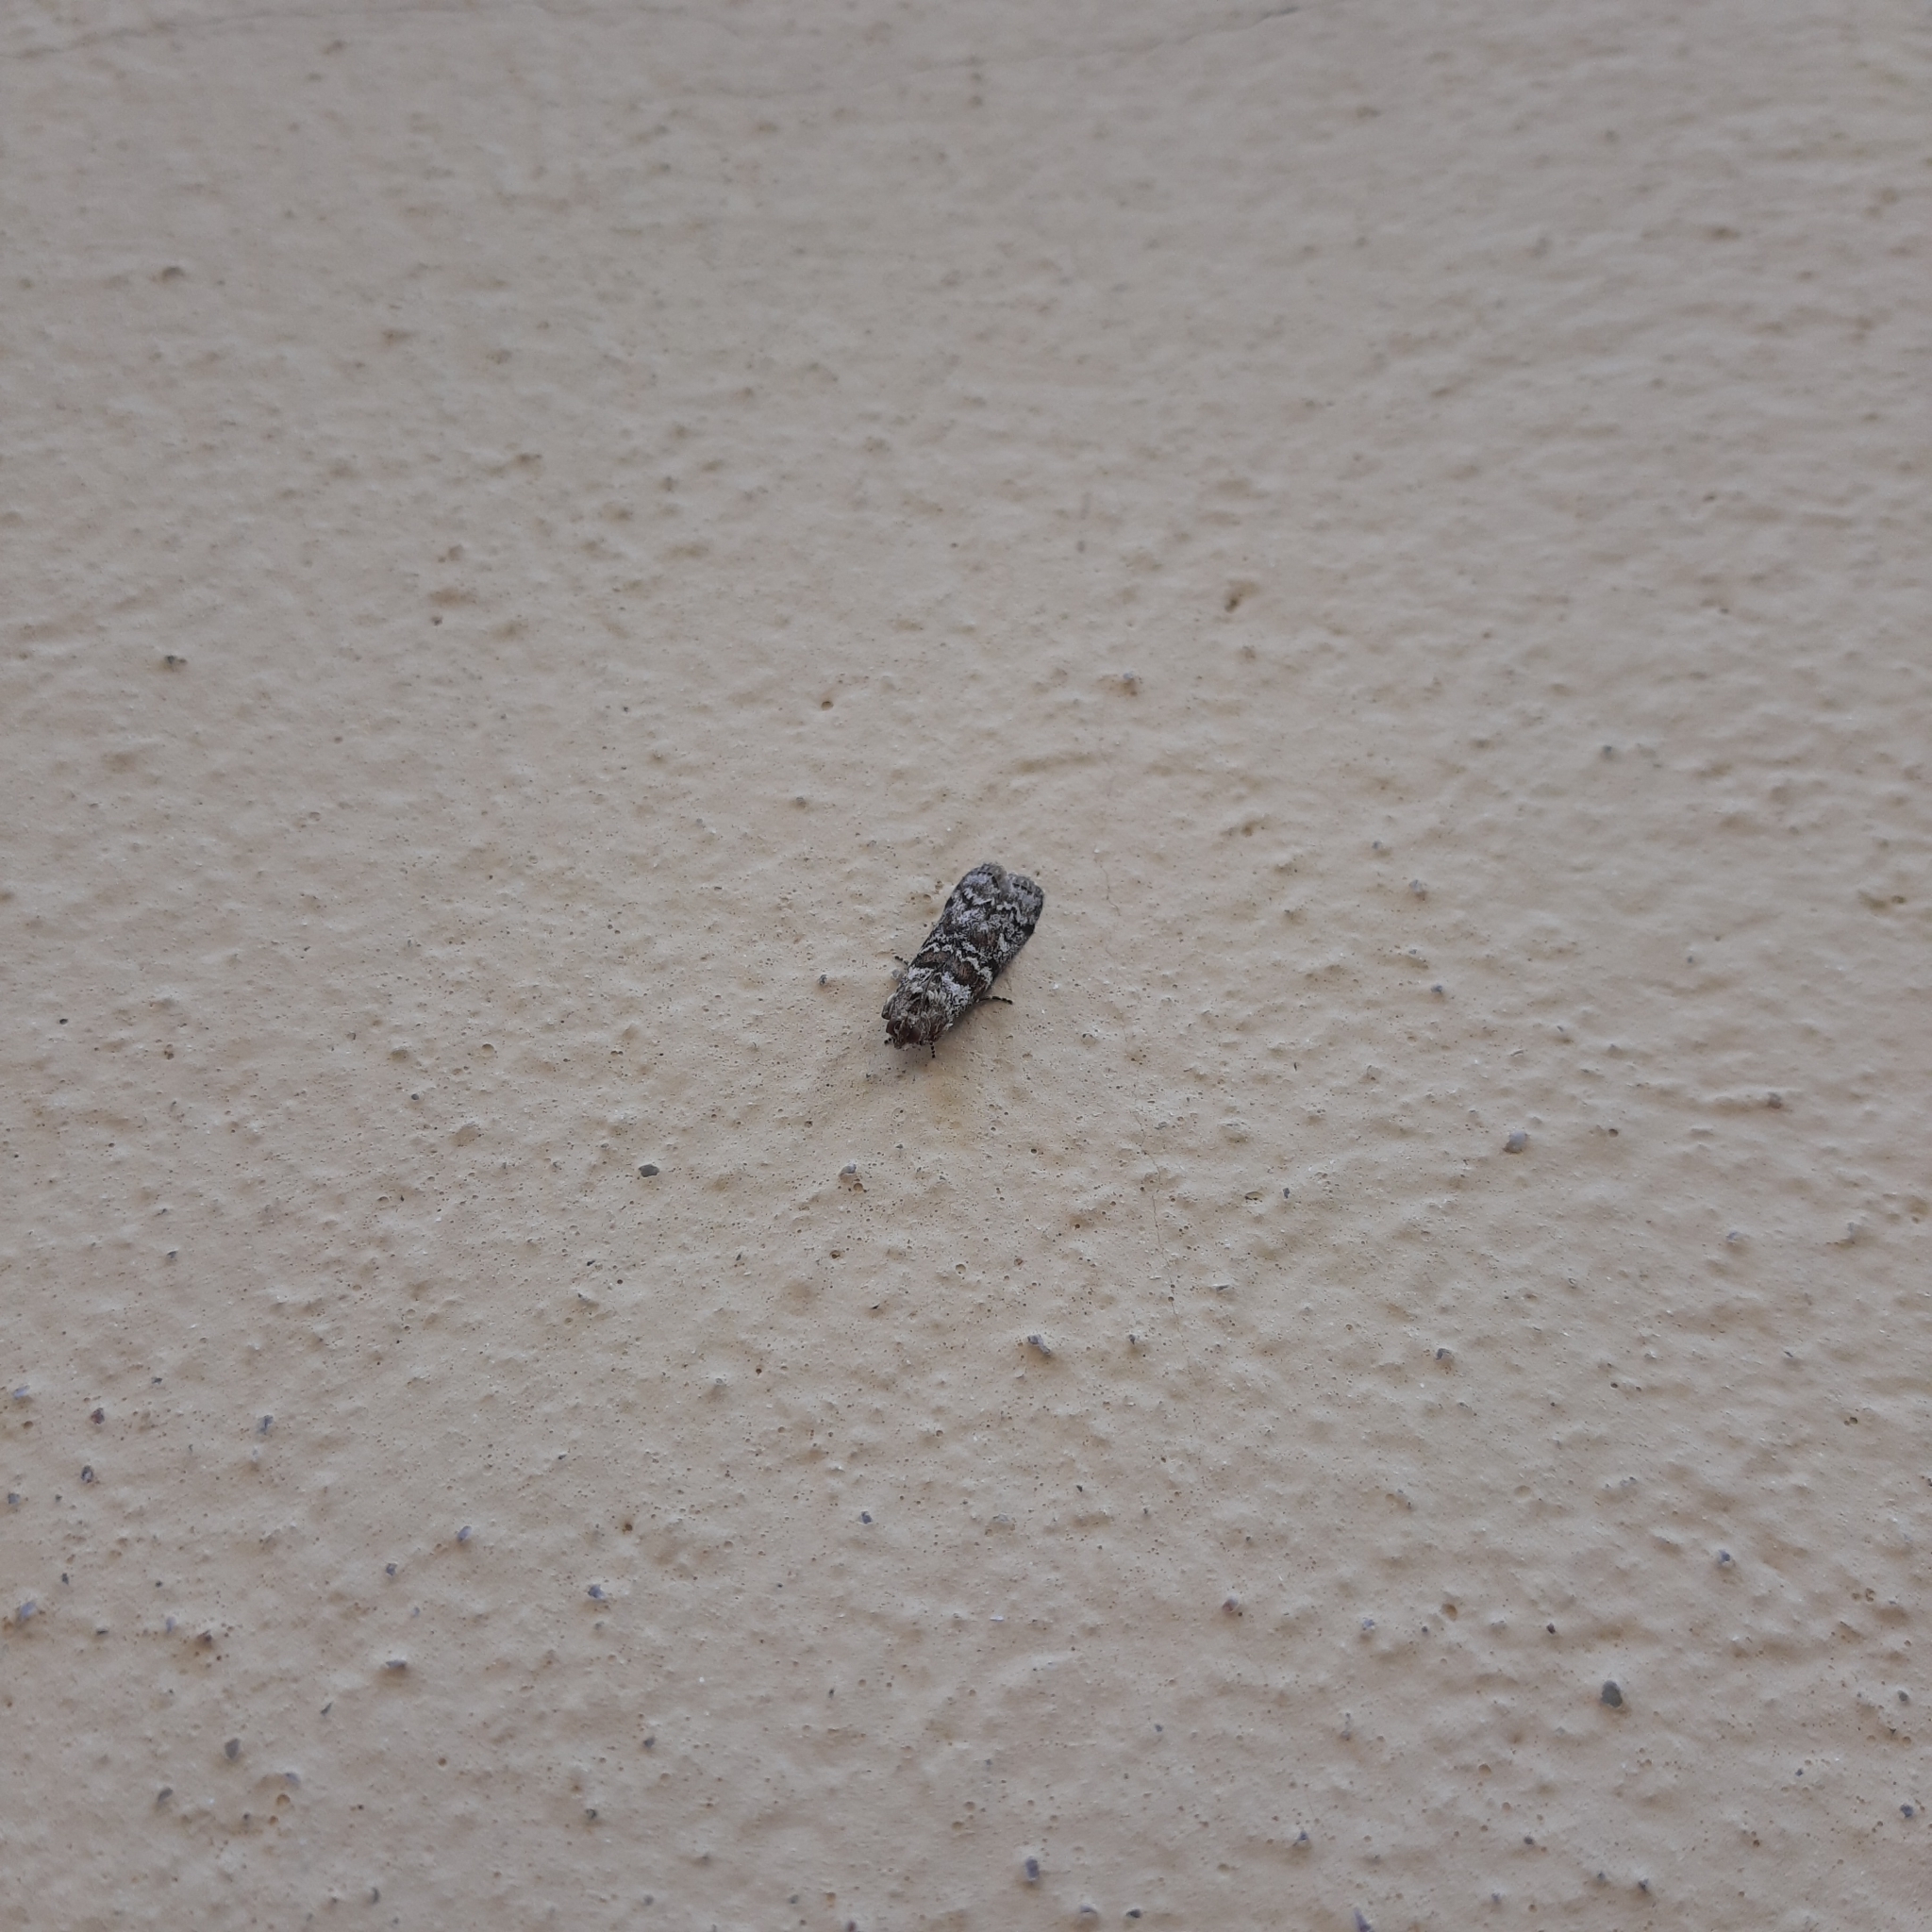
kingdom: Animalia
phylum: Arthropoda
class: Insecta
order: Lepidoptera
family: Pyralidae
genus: Dioryctria
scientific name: Dioryctria abietella
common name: Dark pine knot-horn
